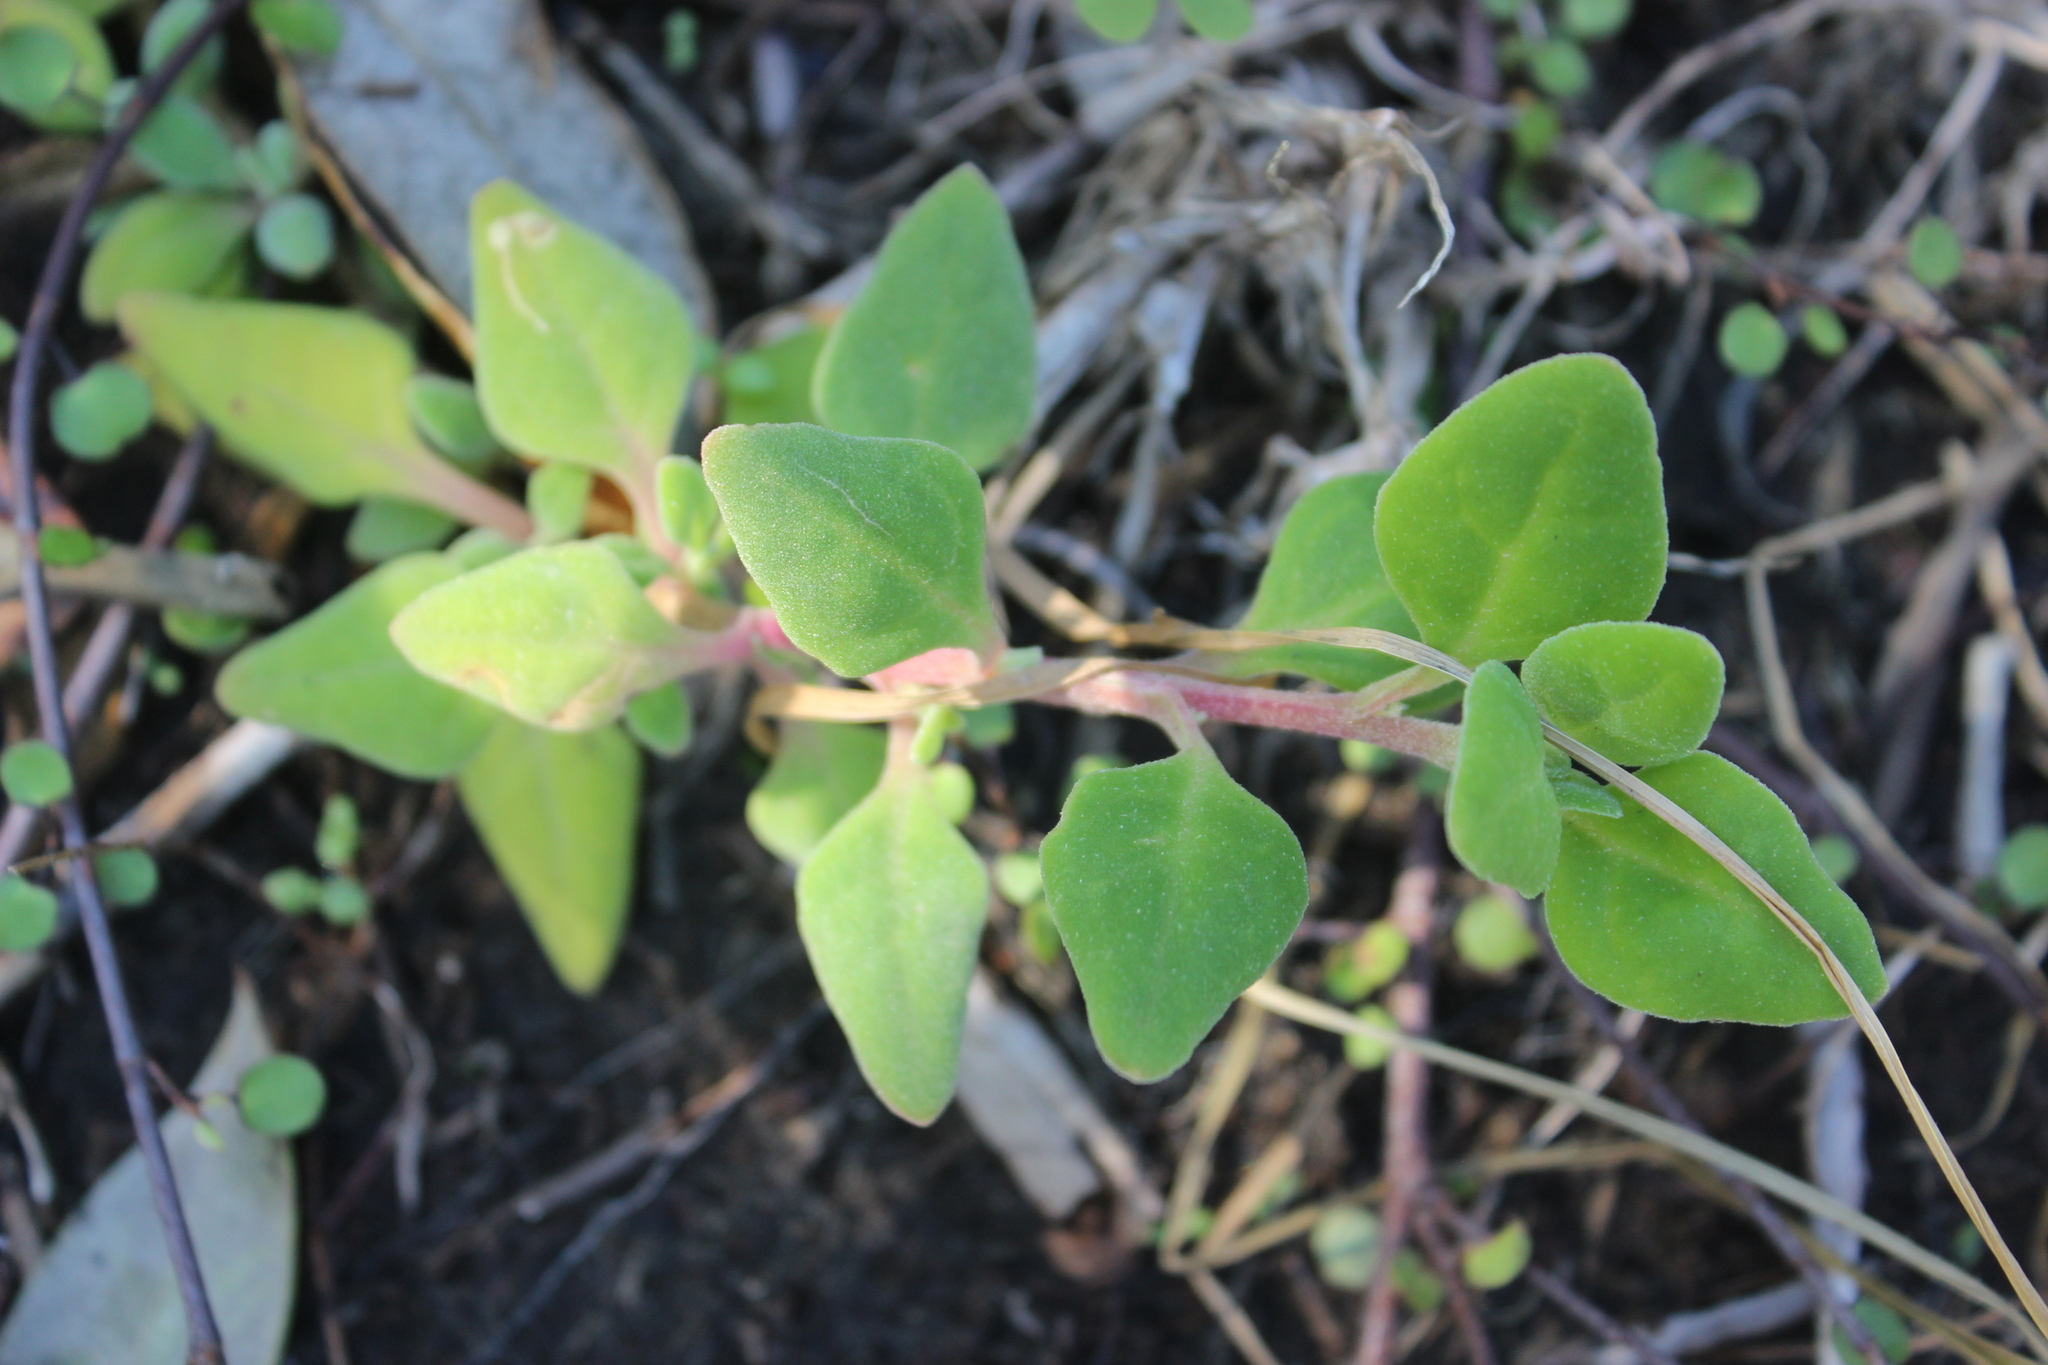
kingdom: Plantae
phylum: Tracheophyta
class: Magnoliopsida
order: Caryophyllales
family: Aizoaceae
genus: Tetragonia
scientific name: Tetragonia implexicoma
